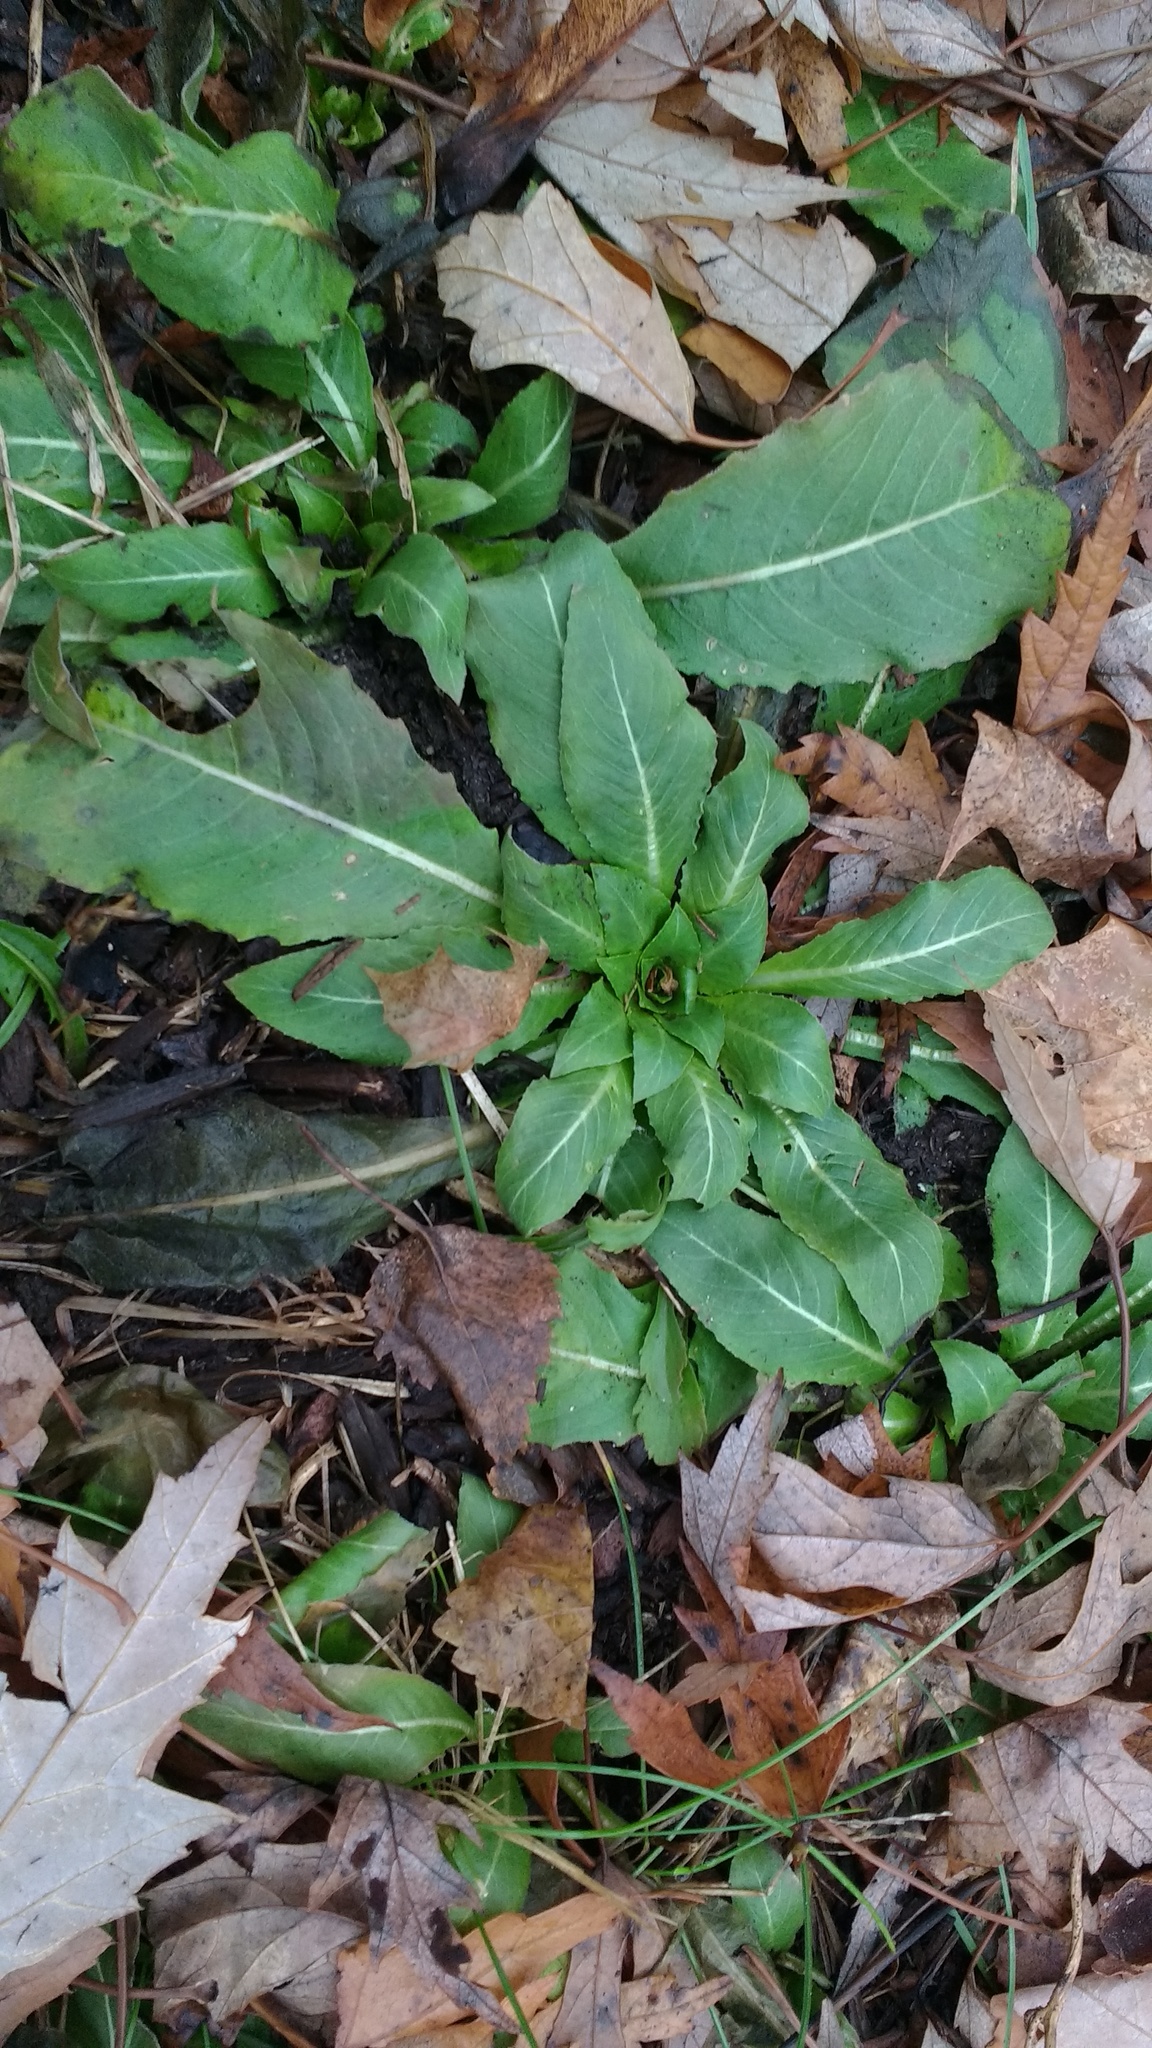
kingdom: Plantae
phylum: Tracheophyta
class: Magnoliopsida
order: Myrtales
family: Onagraceae
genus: Oenothera
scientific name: Oenothera biennis
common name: Common evening-primrose
